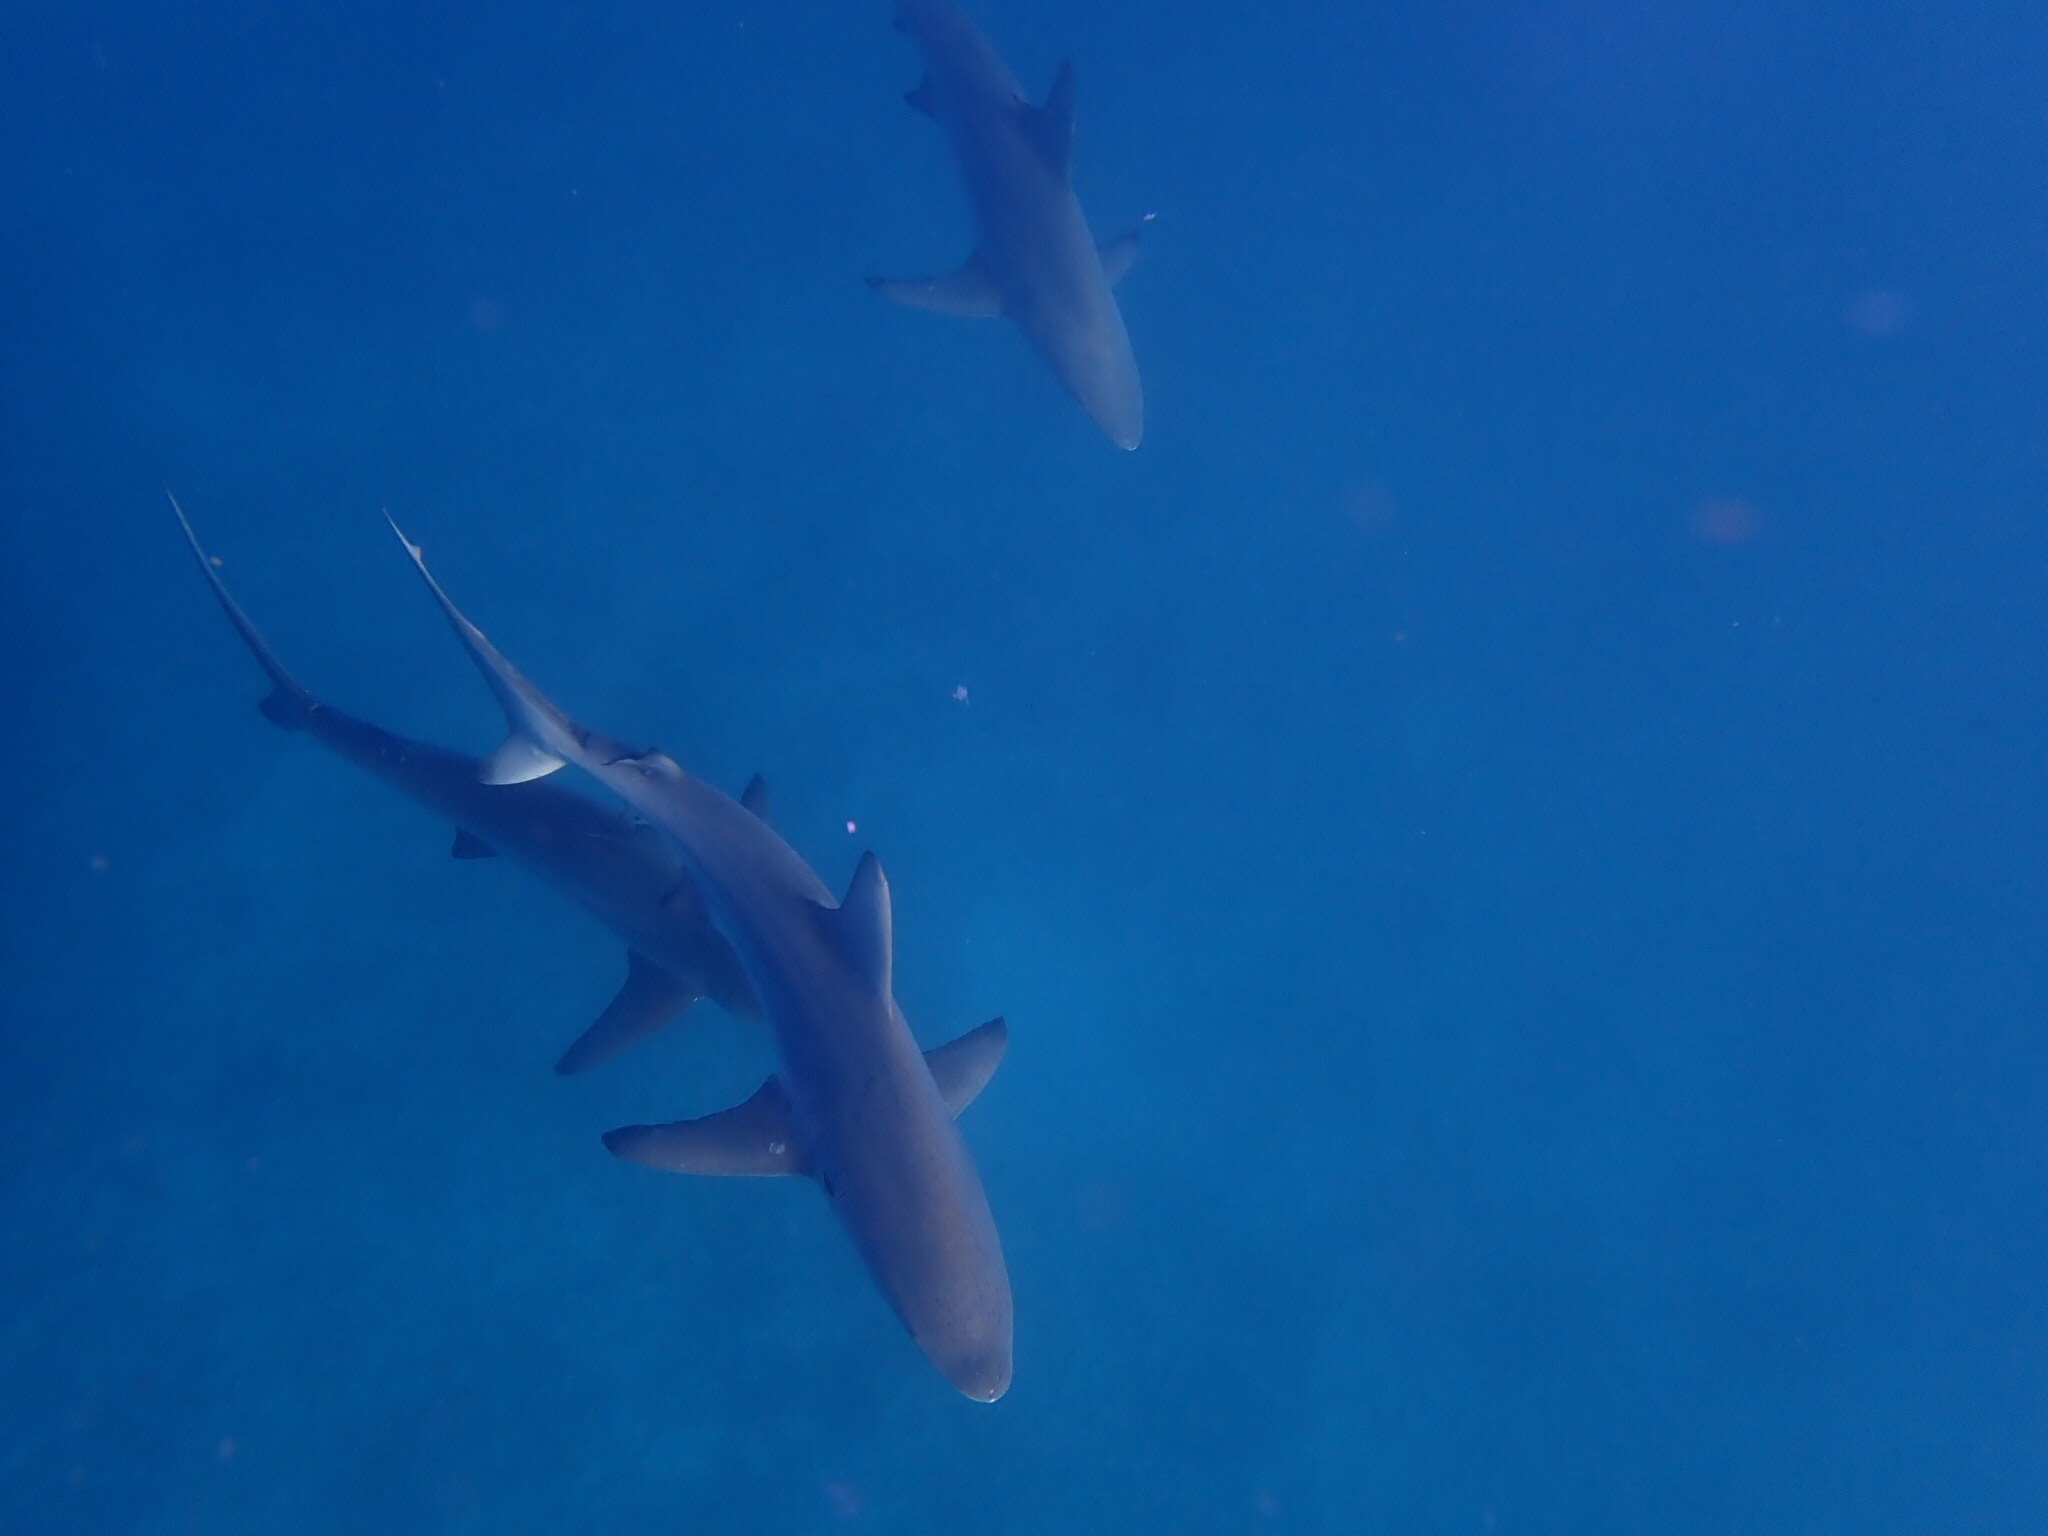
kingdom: Animalia
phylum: Chordata
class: Elasmobranchii
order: Carcharhiniformes
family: Carcharhinidae
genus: Carcharhinus
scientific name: Carcharhinus limbatus
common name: Blacktip shark
